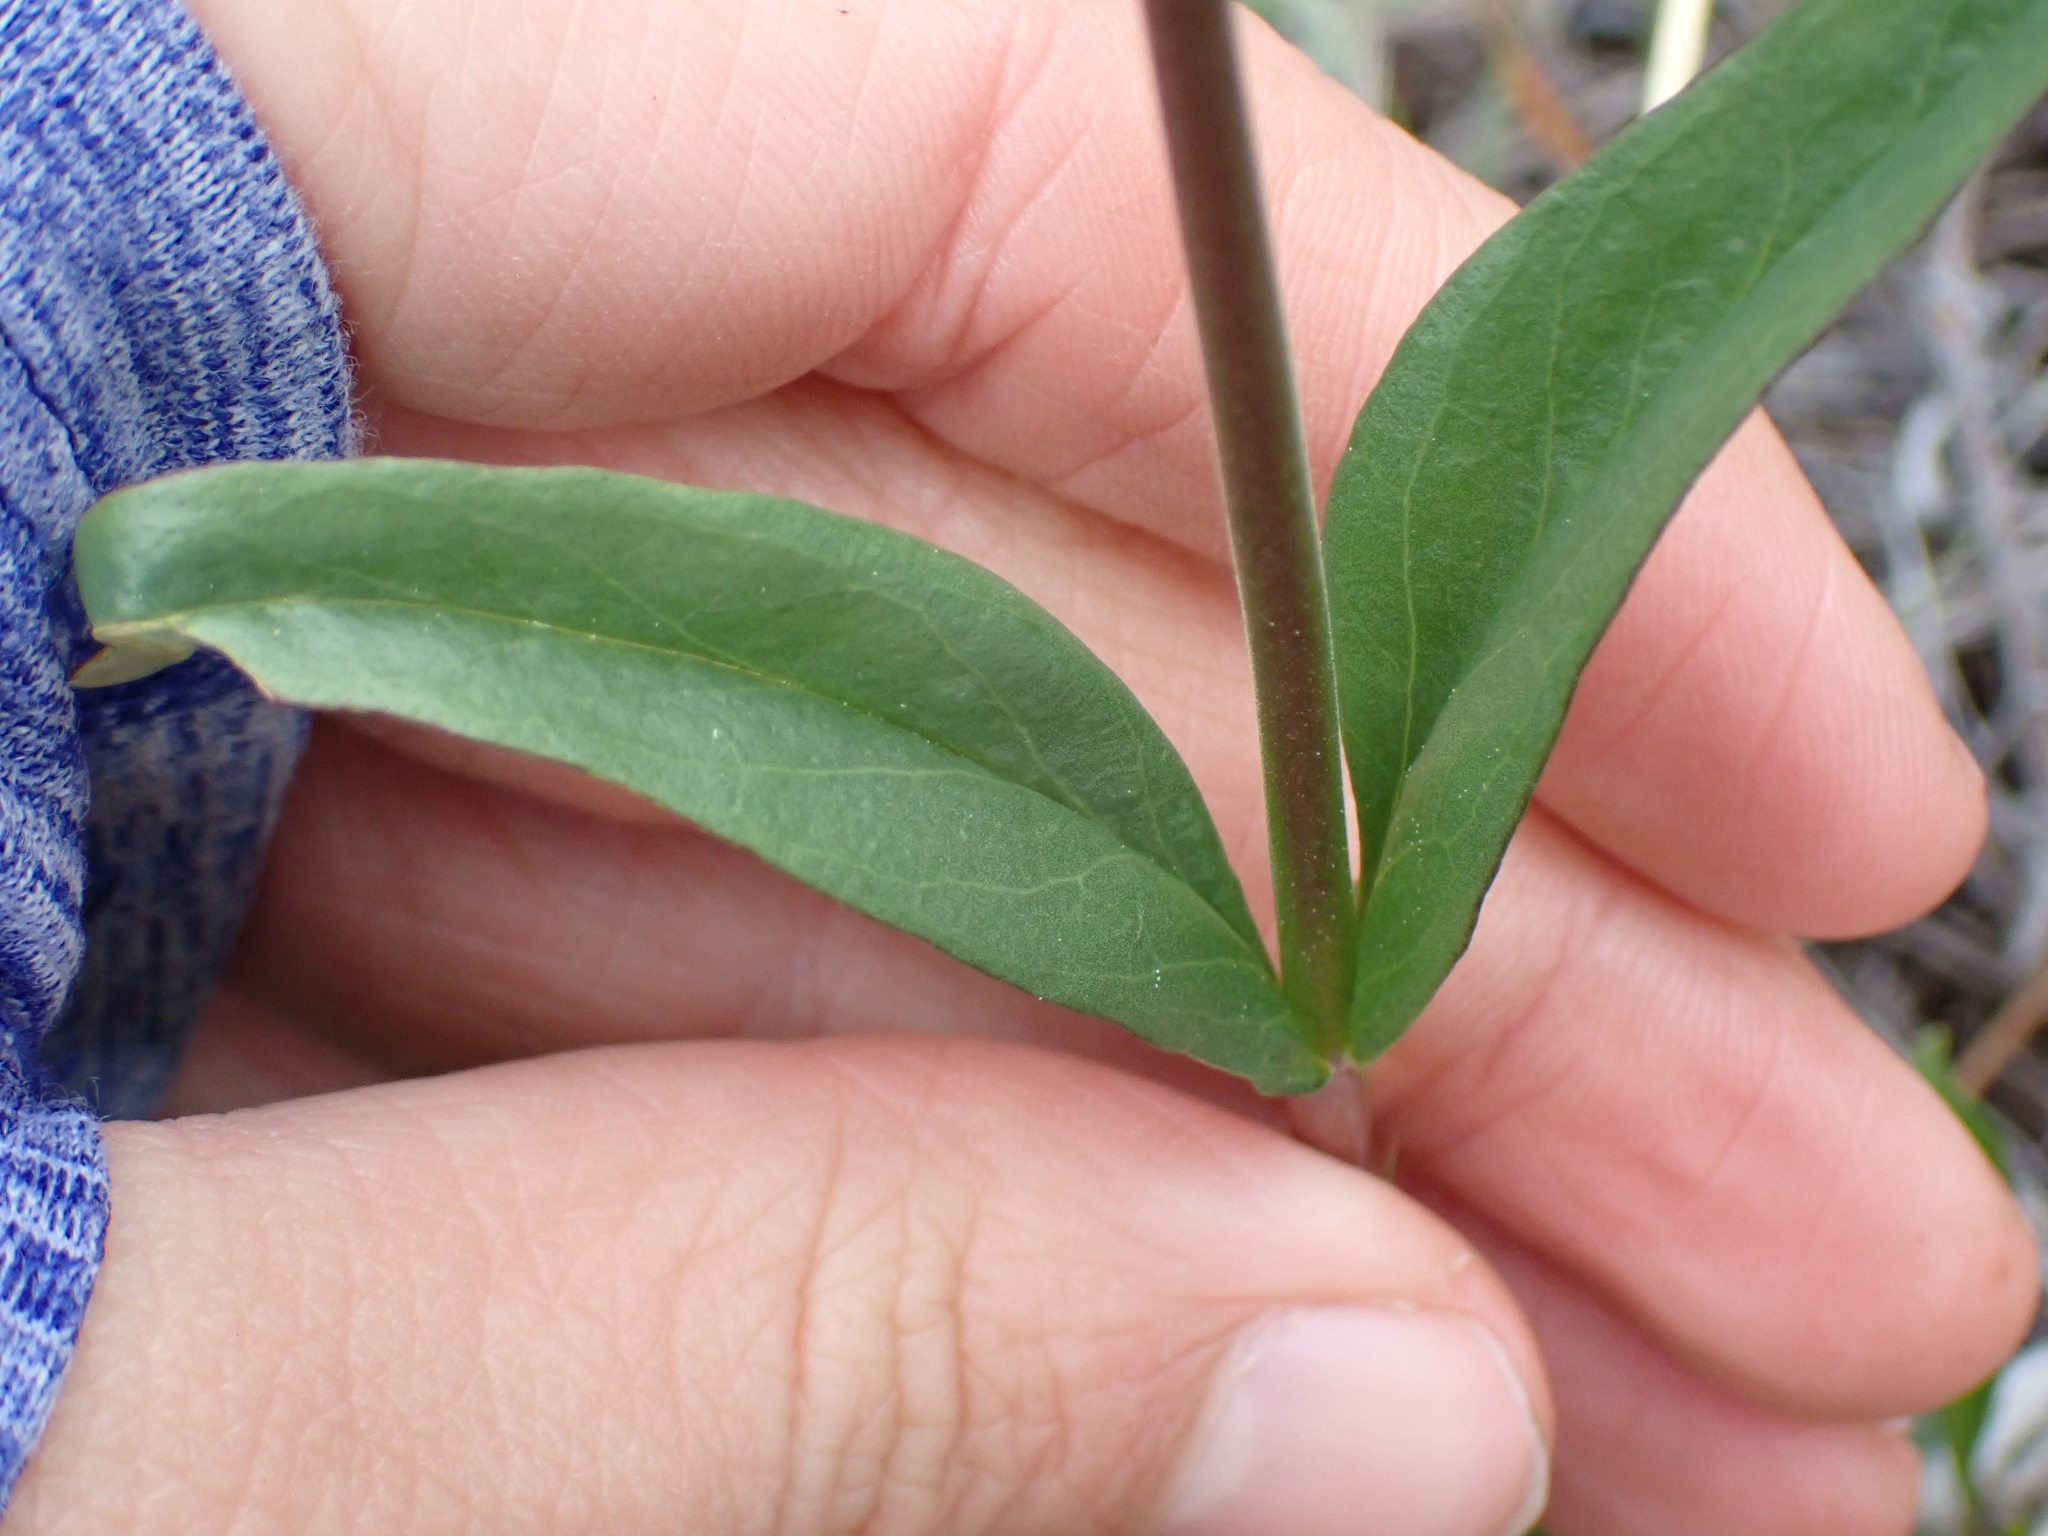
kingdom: Plantae
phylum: Tracheophyta
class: Magnoliopsida
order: Lamiales
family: Plantaginaceae
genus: Penstemon
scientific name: Penstemon confertus
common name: Lesser yellow beardtongue
